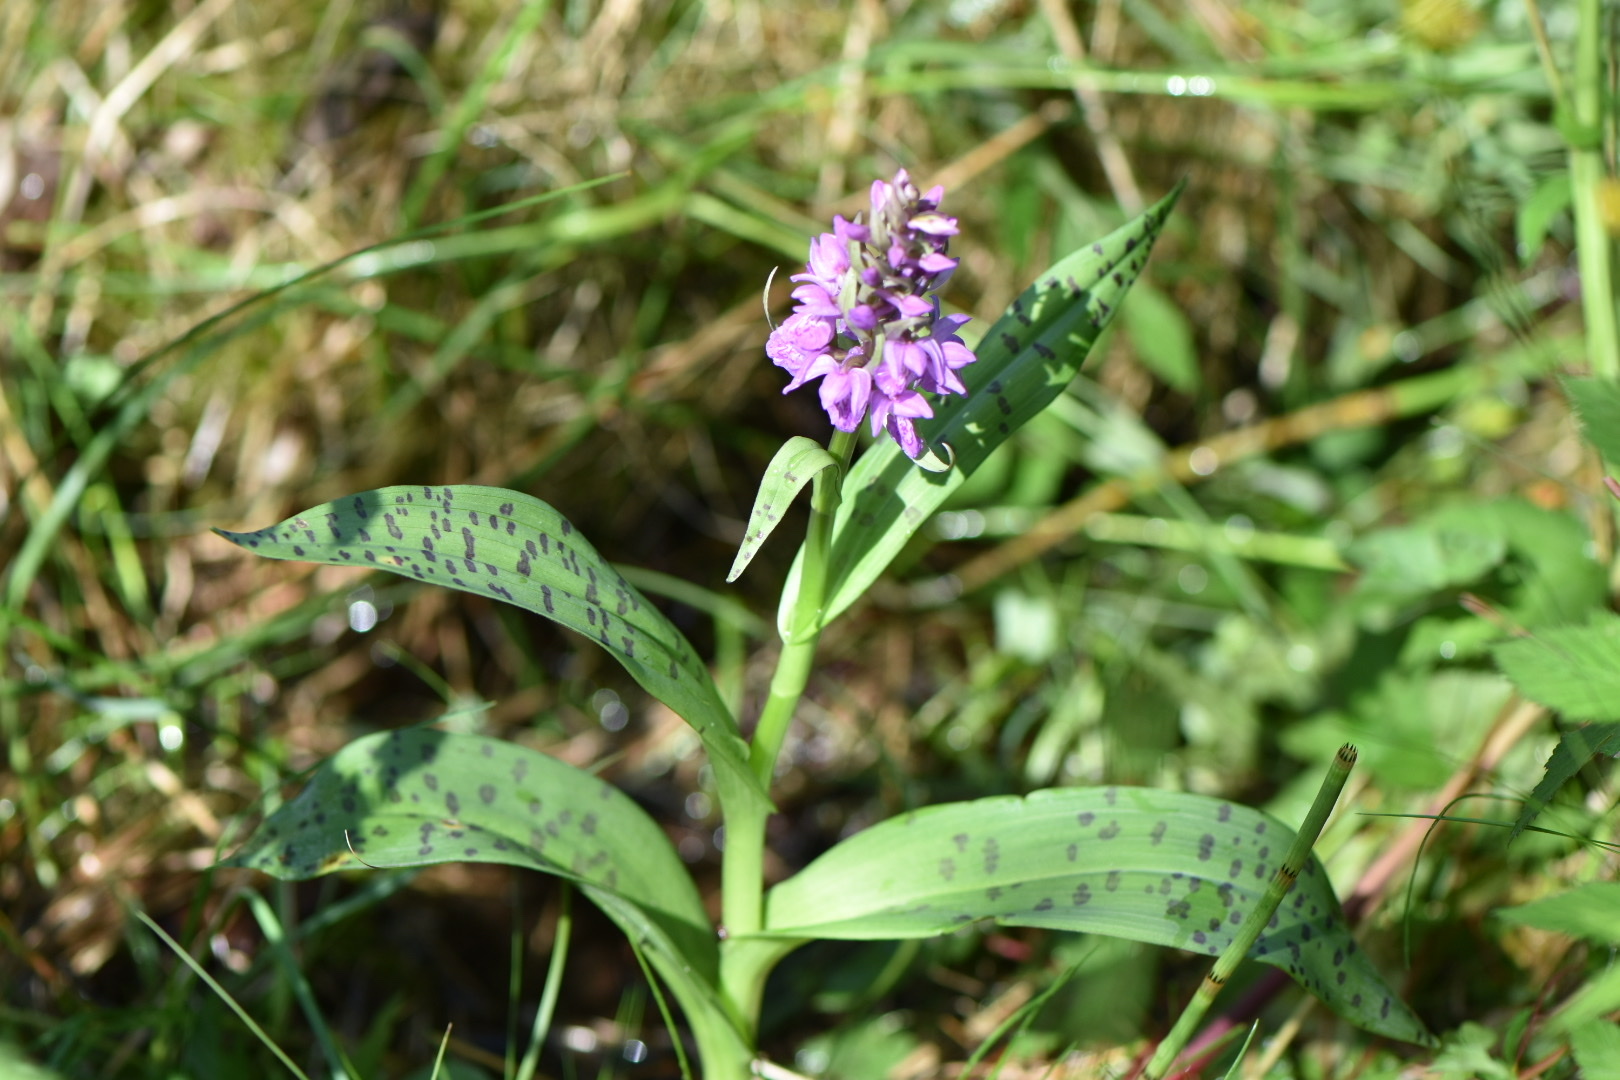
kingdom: Plantae
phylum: Tracheophyta
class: Liliopsida
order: Asparagales
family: Orchidaceae
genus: Dactylorhiza
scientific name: Dactylorhiza majalis
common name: Marsh orchid
